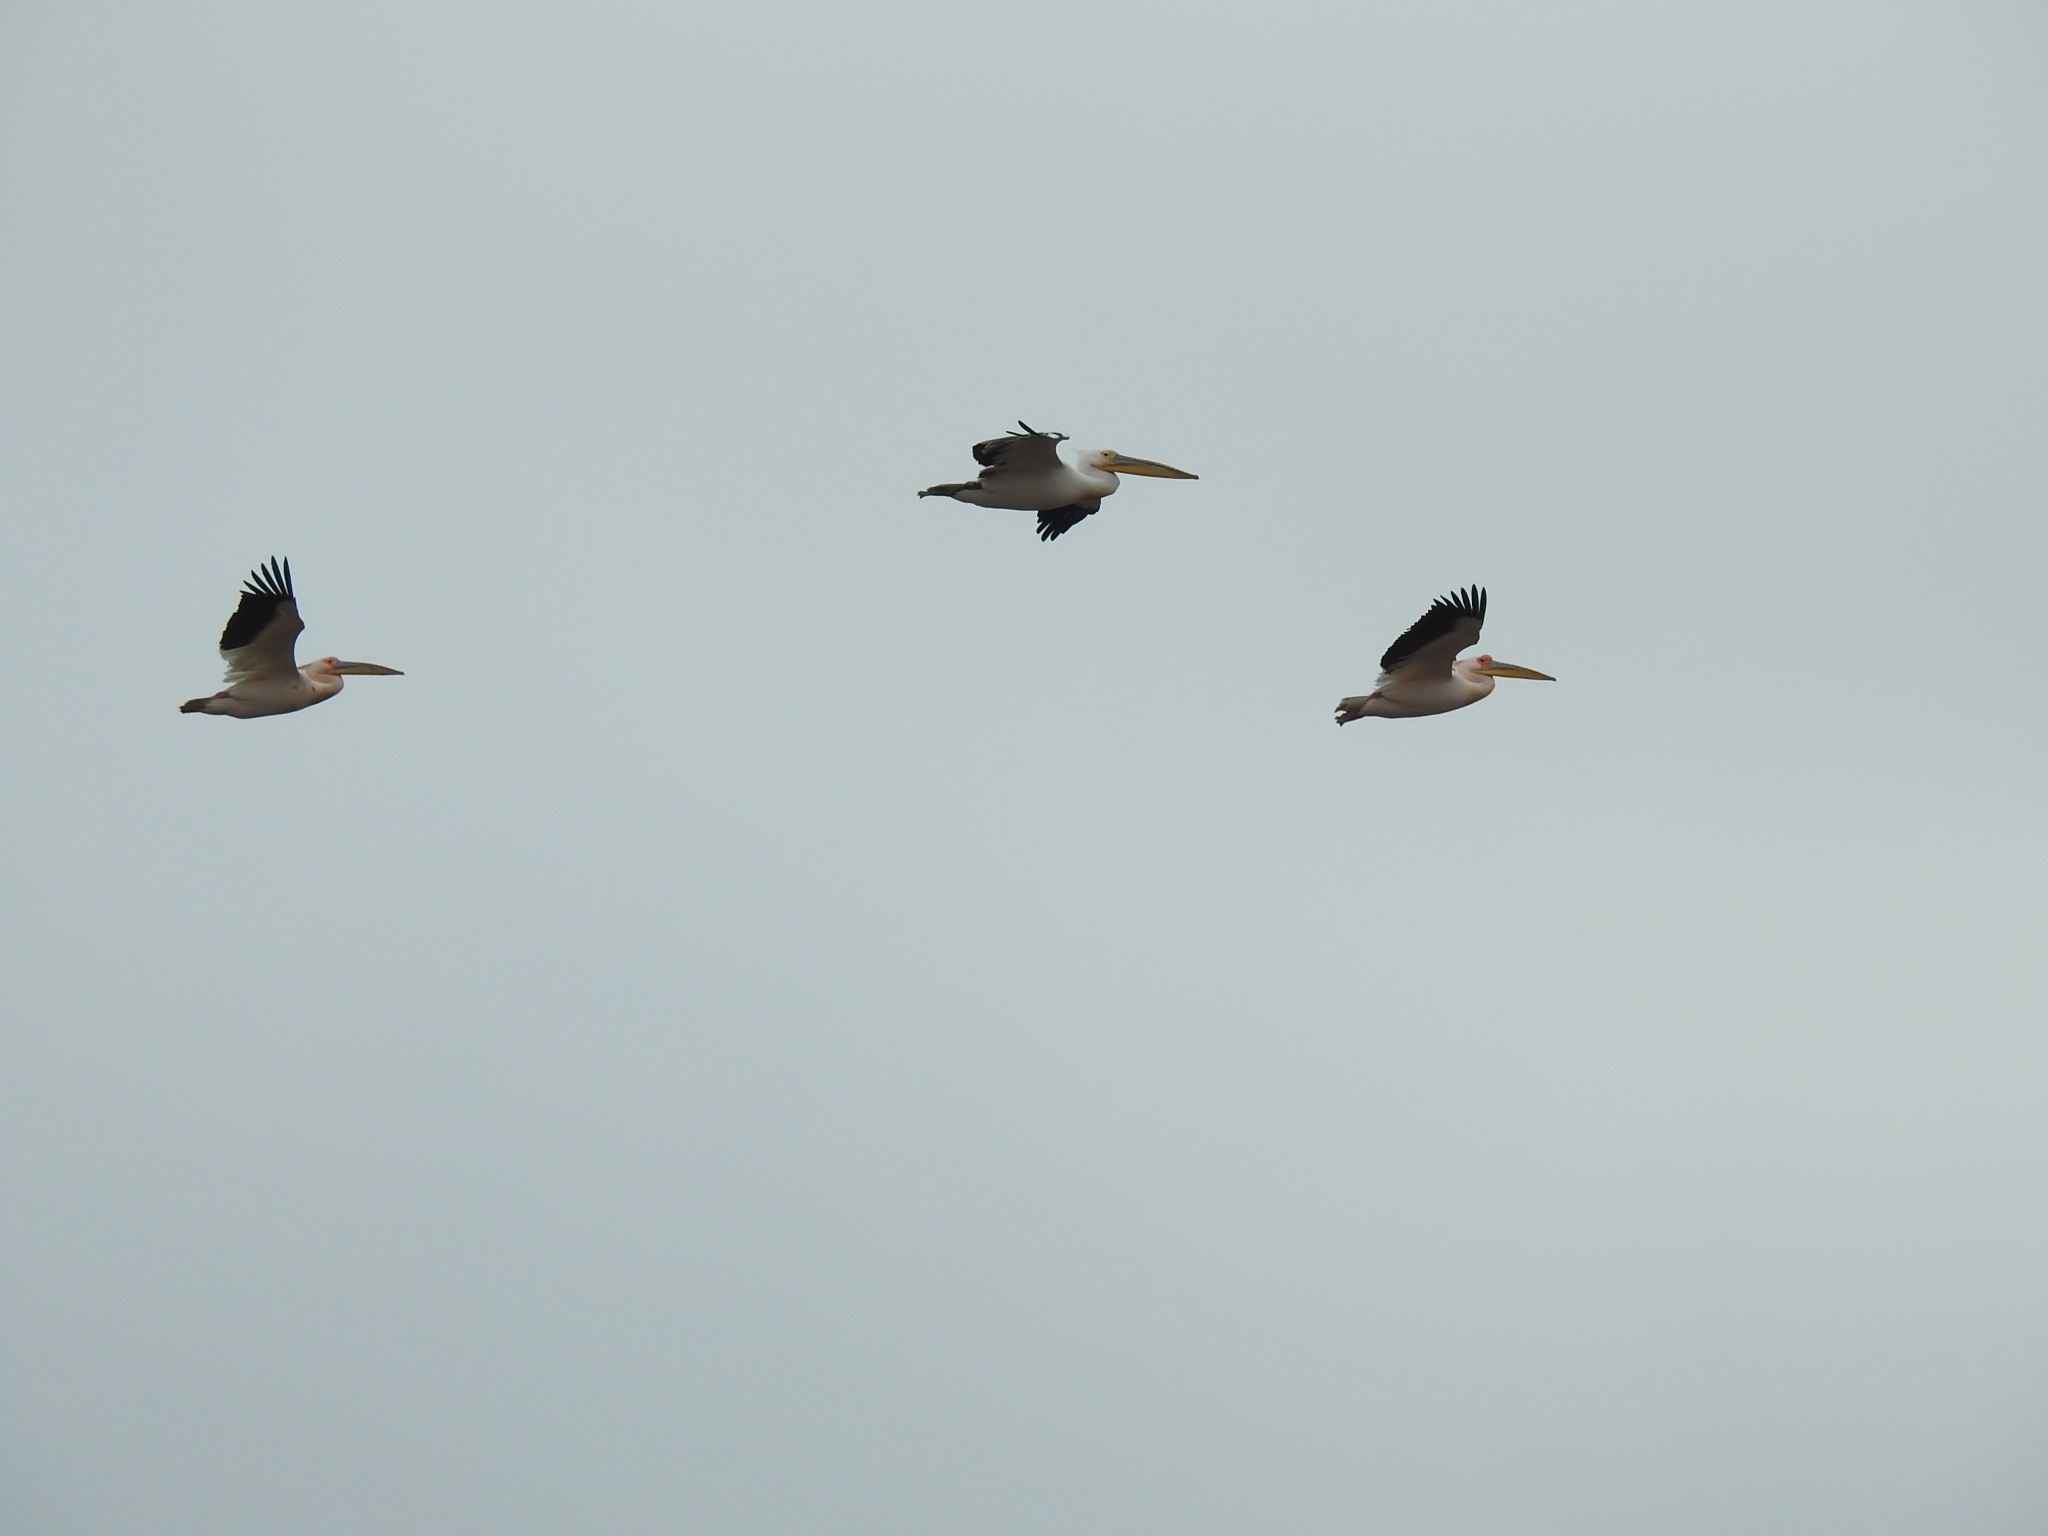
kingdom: Animalia
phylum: Chordata
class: Aves
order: Pelecaniformes
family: Pelecanidae
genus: Pelecanus
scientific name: Pelecanus onocrotalus
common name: Great white pelican
